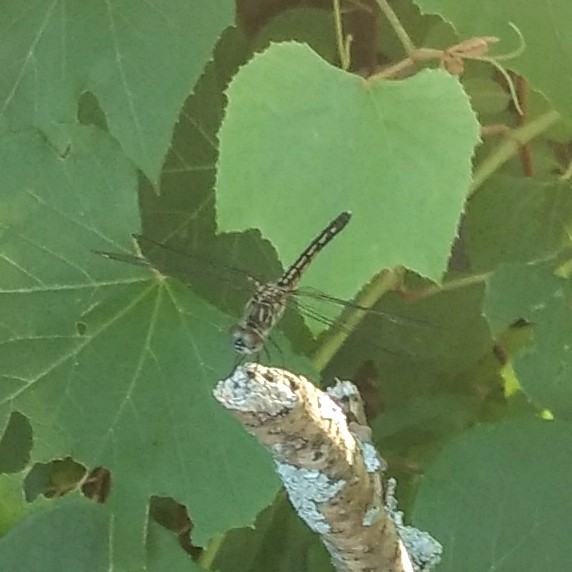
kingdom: Animalia
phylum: Arthropoda
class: Insecta
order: Odonata
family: Libellulidae
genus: Pachydiplax
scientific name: Pachydiplax longipennis
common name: Blue dasher
